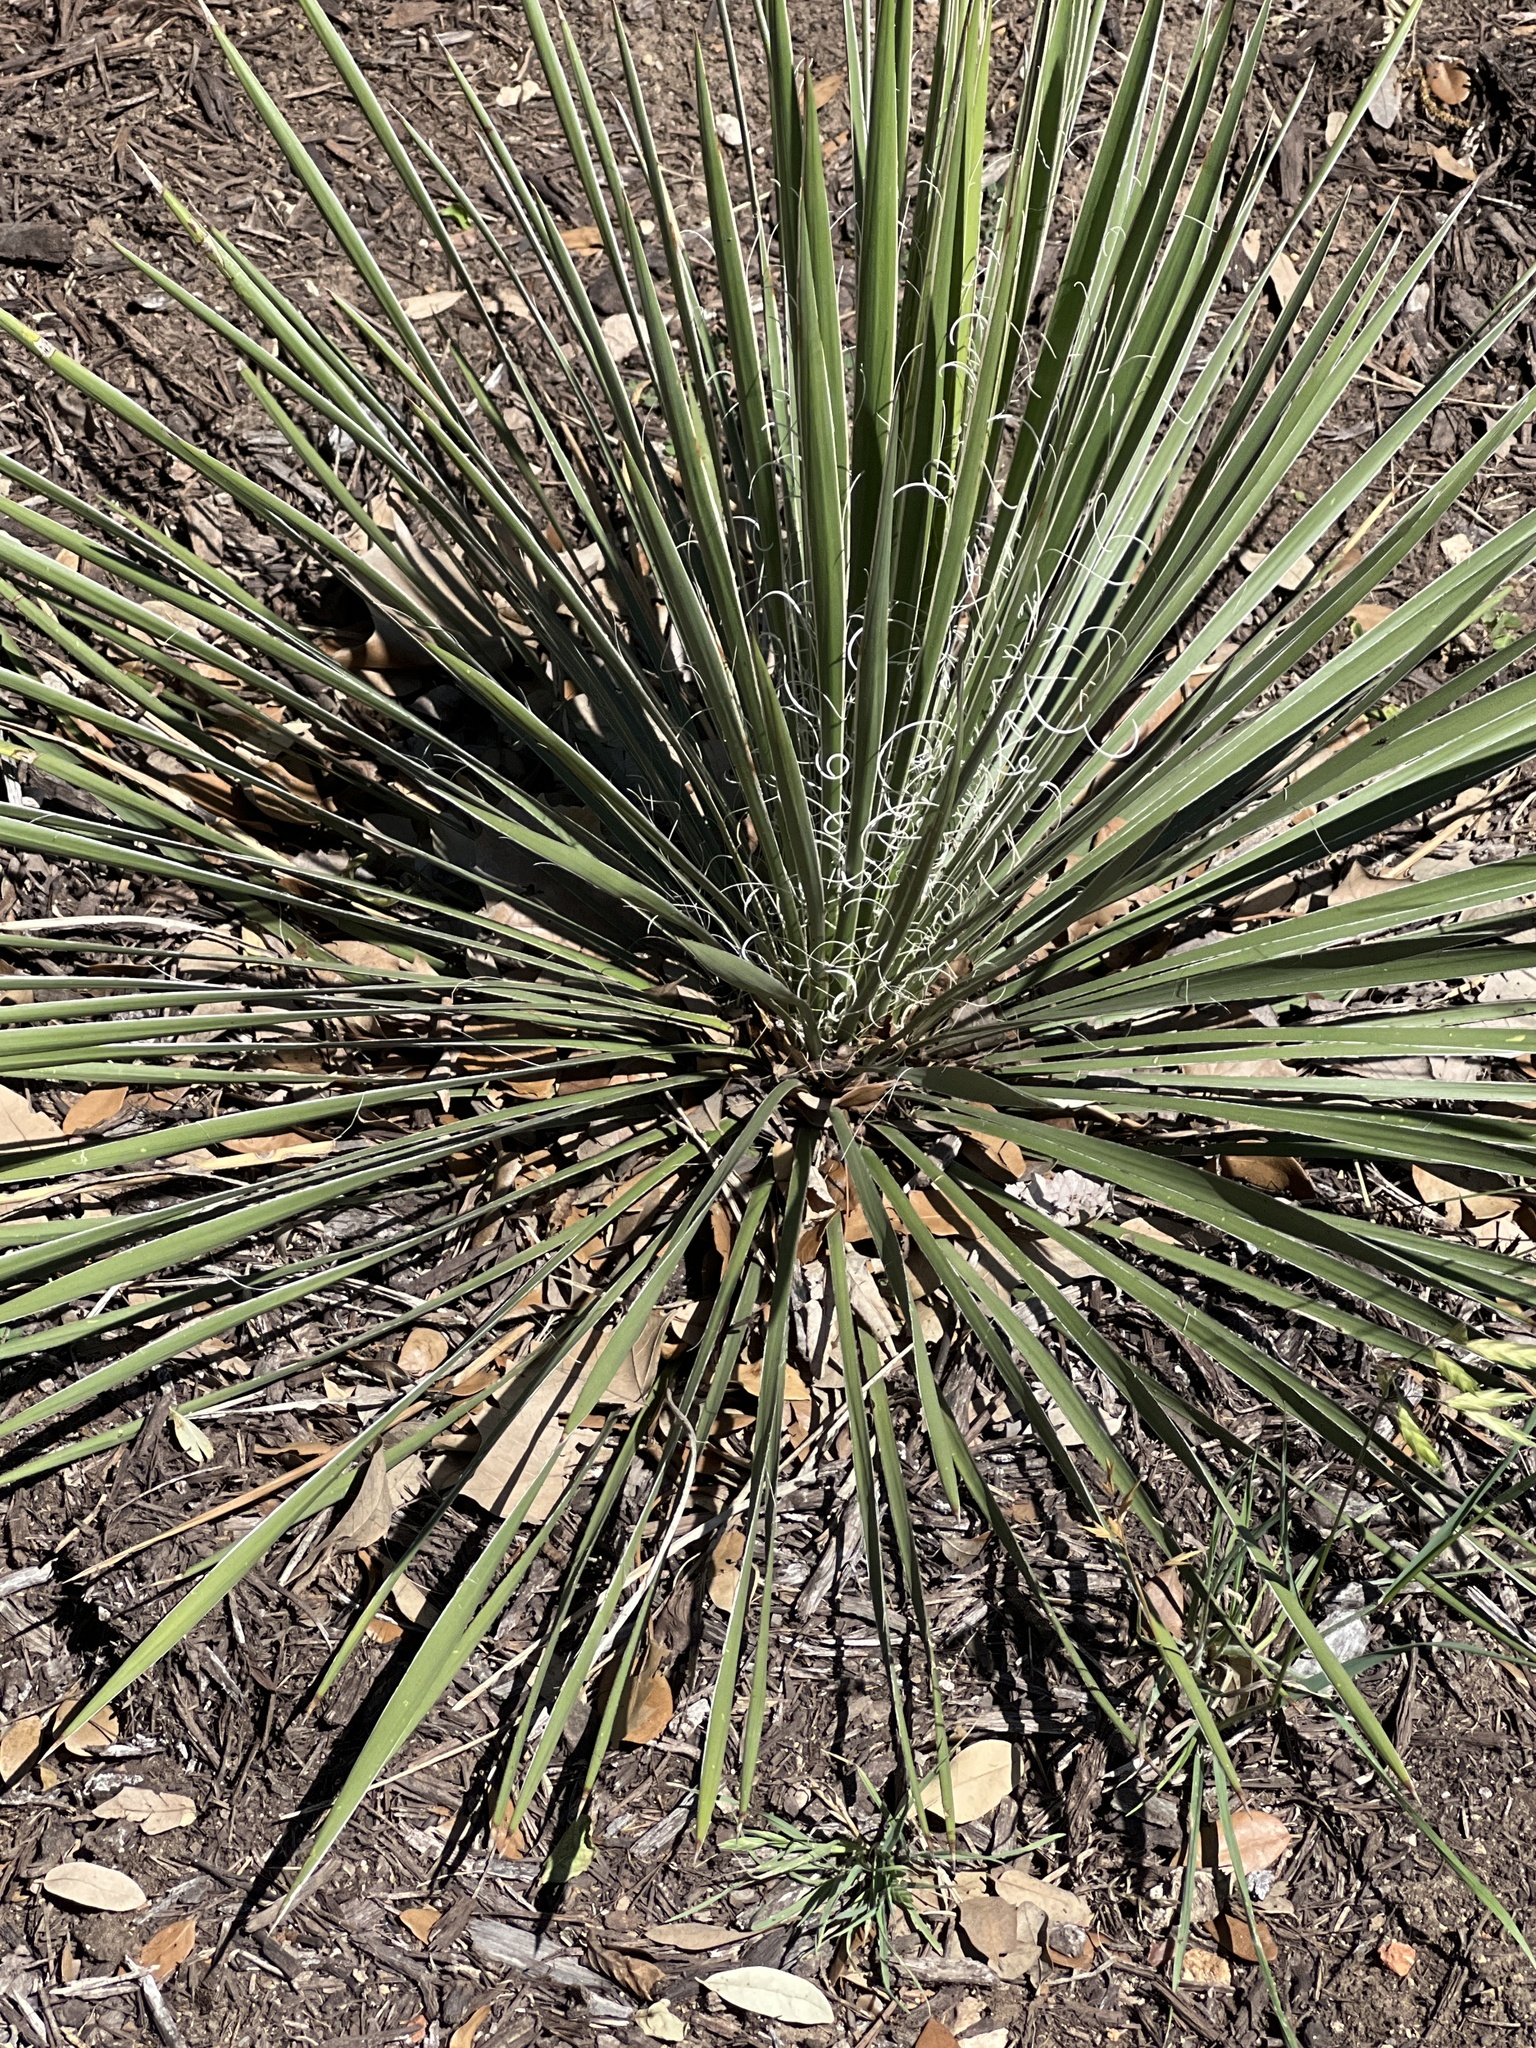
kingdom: Plantae
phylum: Tracheophyta
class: Liliopsida
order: Asparagales
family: Asparagaceae
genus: Yucca
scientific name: Yucca constricta
